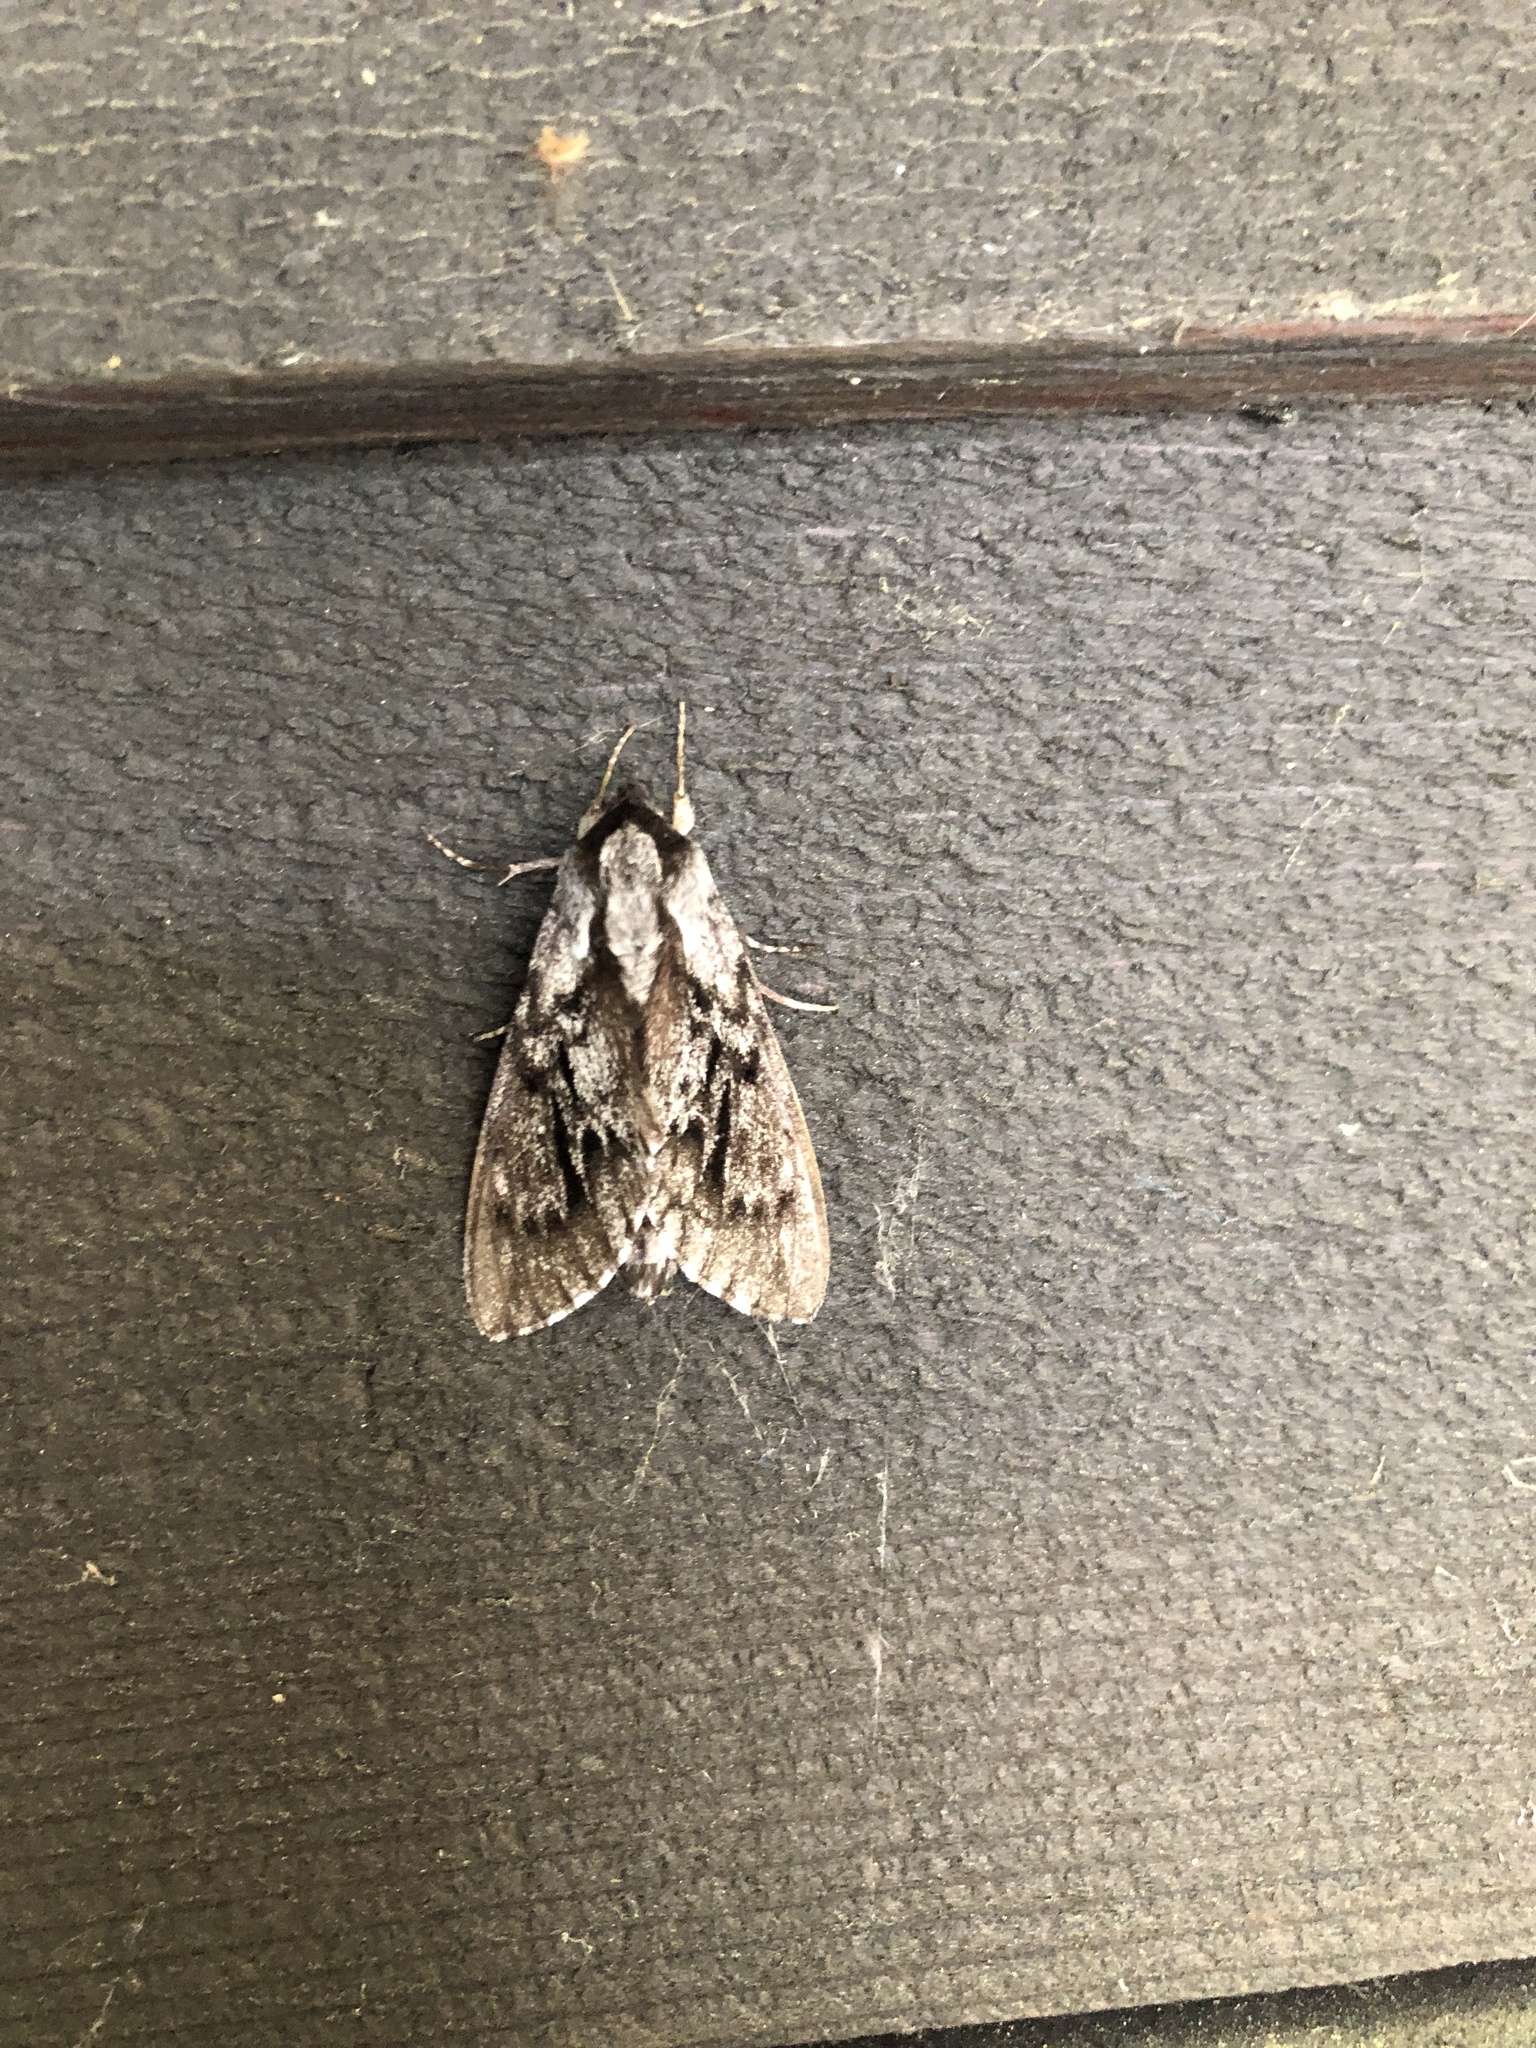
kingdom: Animalia
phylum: Arthropoda
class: Insecta
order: Lepidoptera
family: Sphingidae
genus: Lapara
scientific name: Lapara bombycoides
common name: Northern pine sphinx
